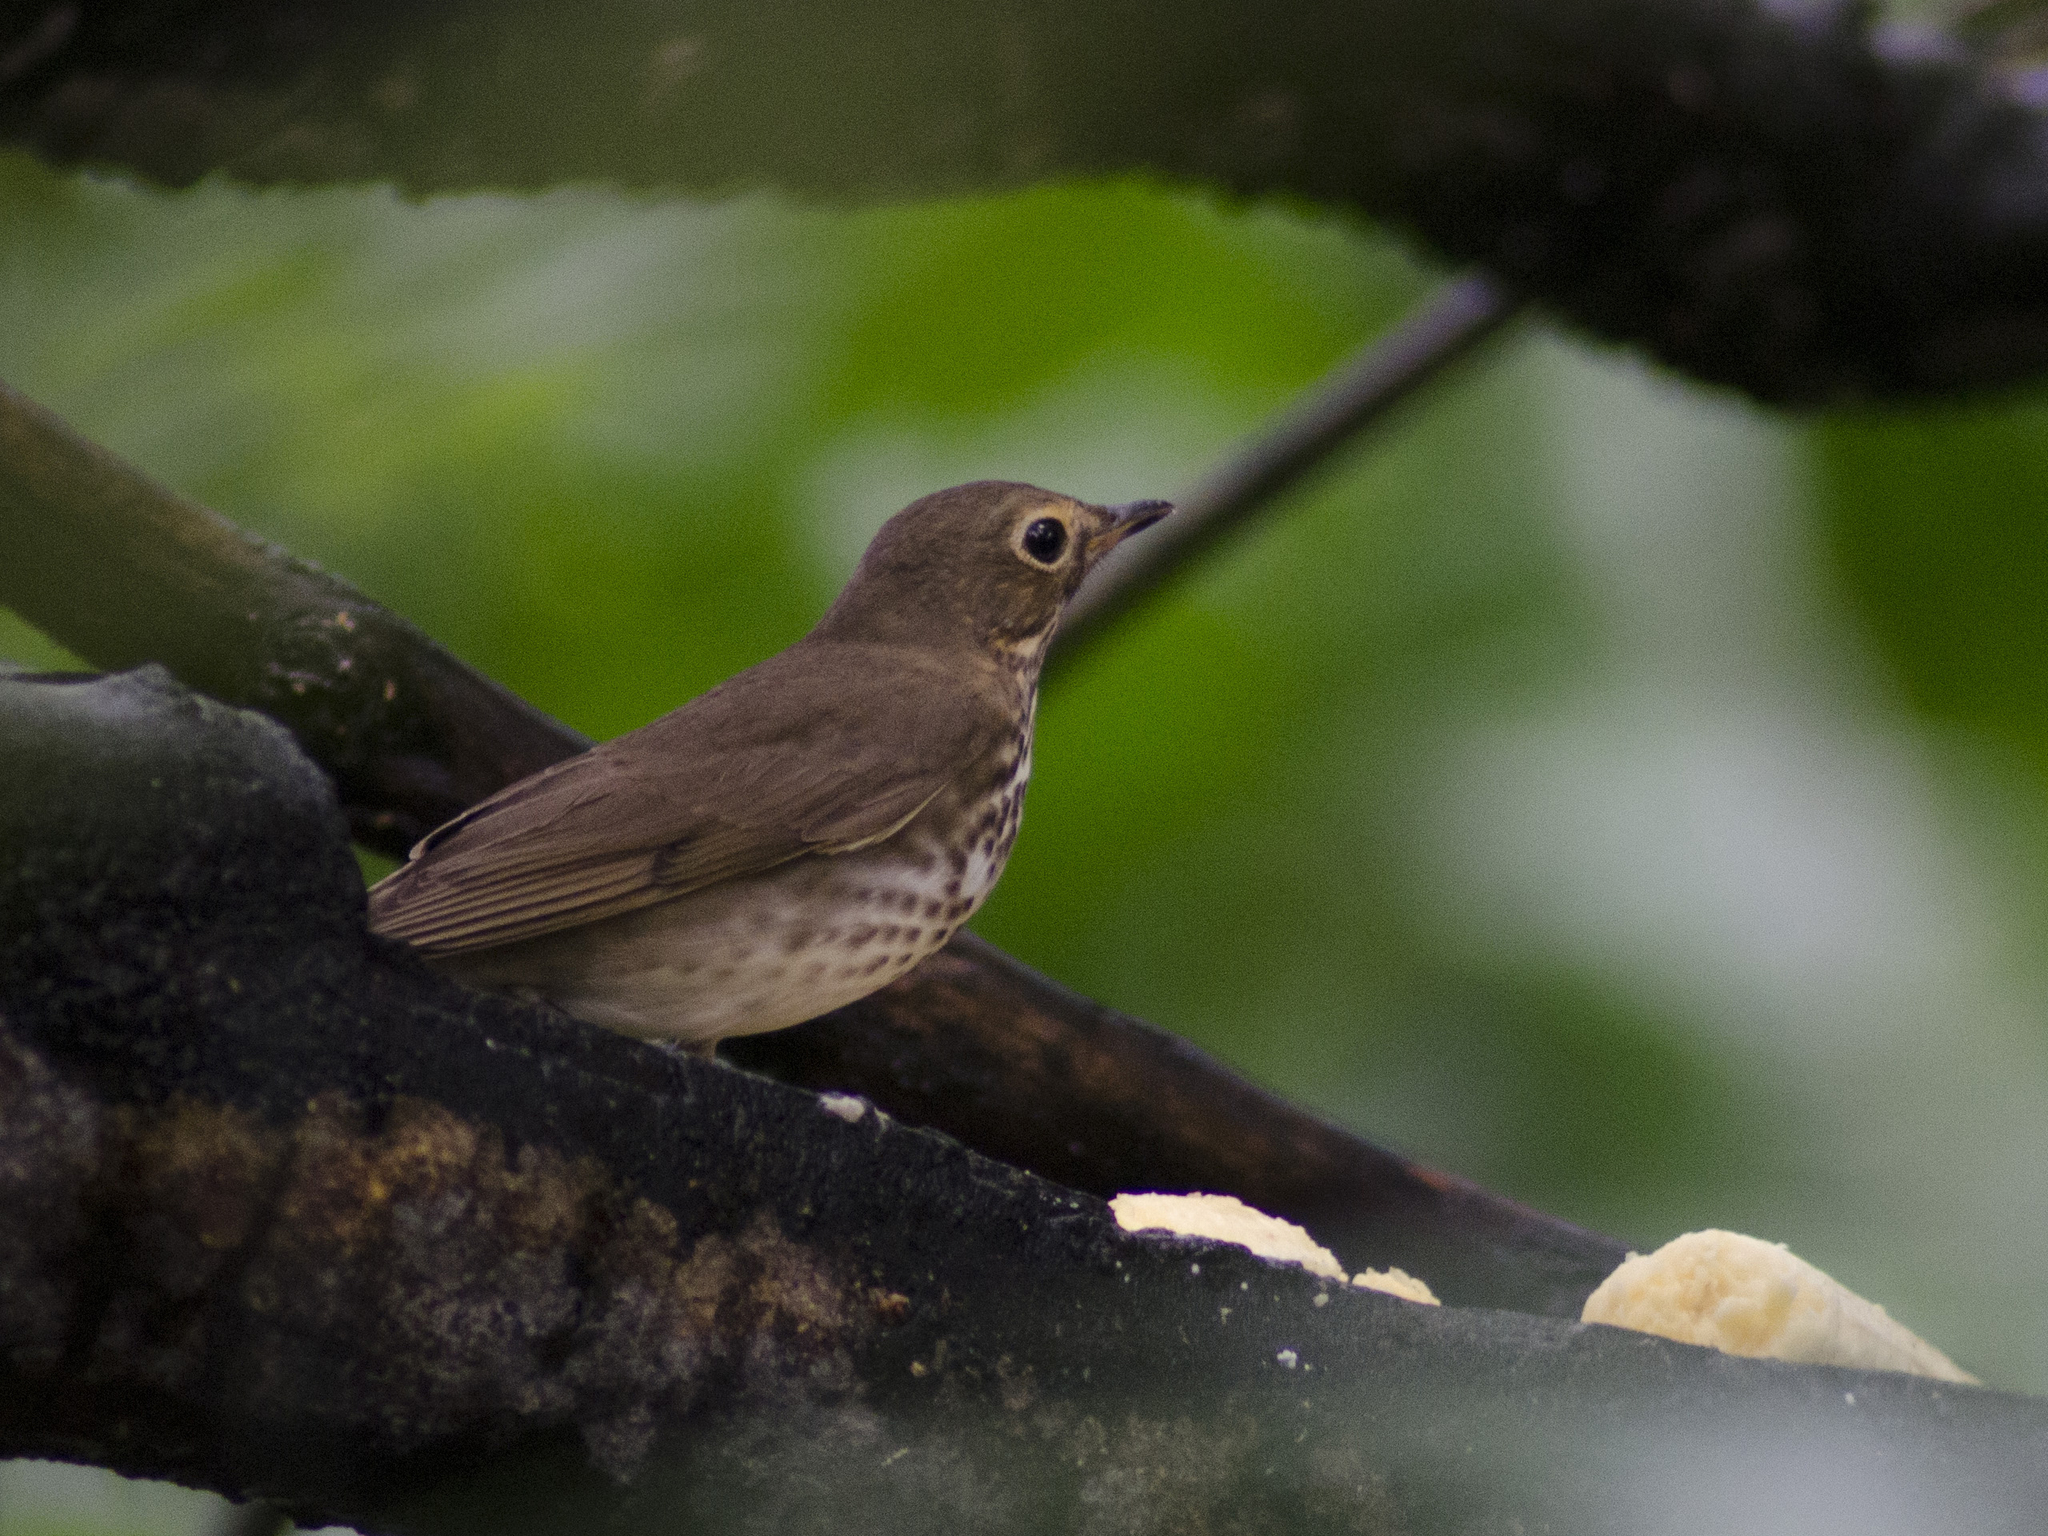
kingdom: Animalia
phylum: Chordata
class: Aves
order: Passeriformes
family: Turdidae
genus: Catharus
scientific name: Catharus ustulatus
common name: Swainson's thrush
